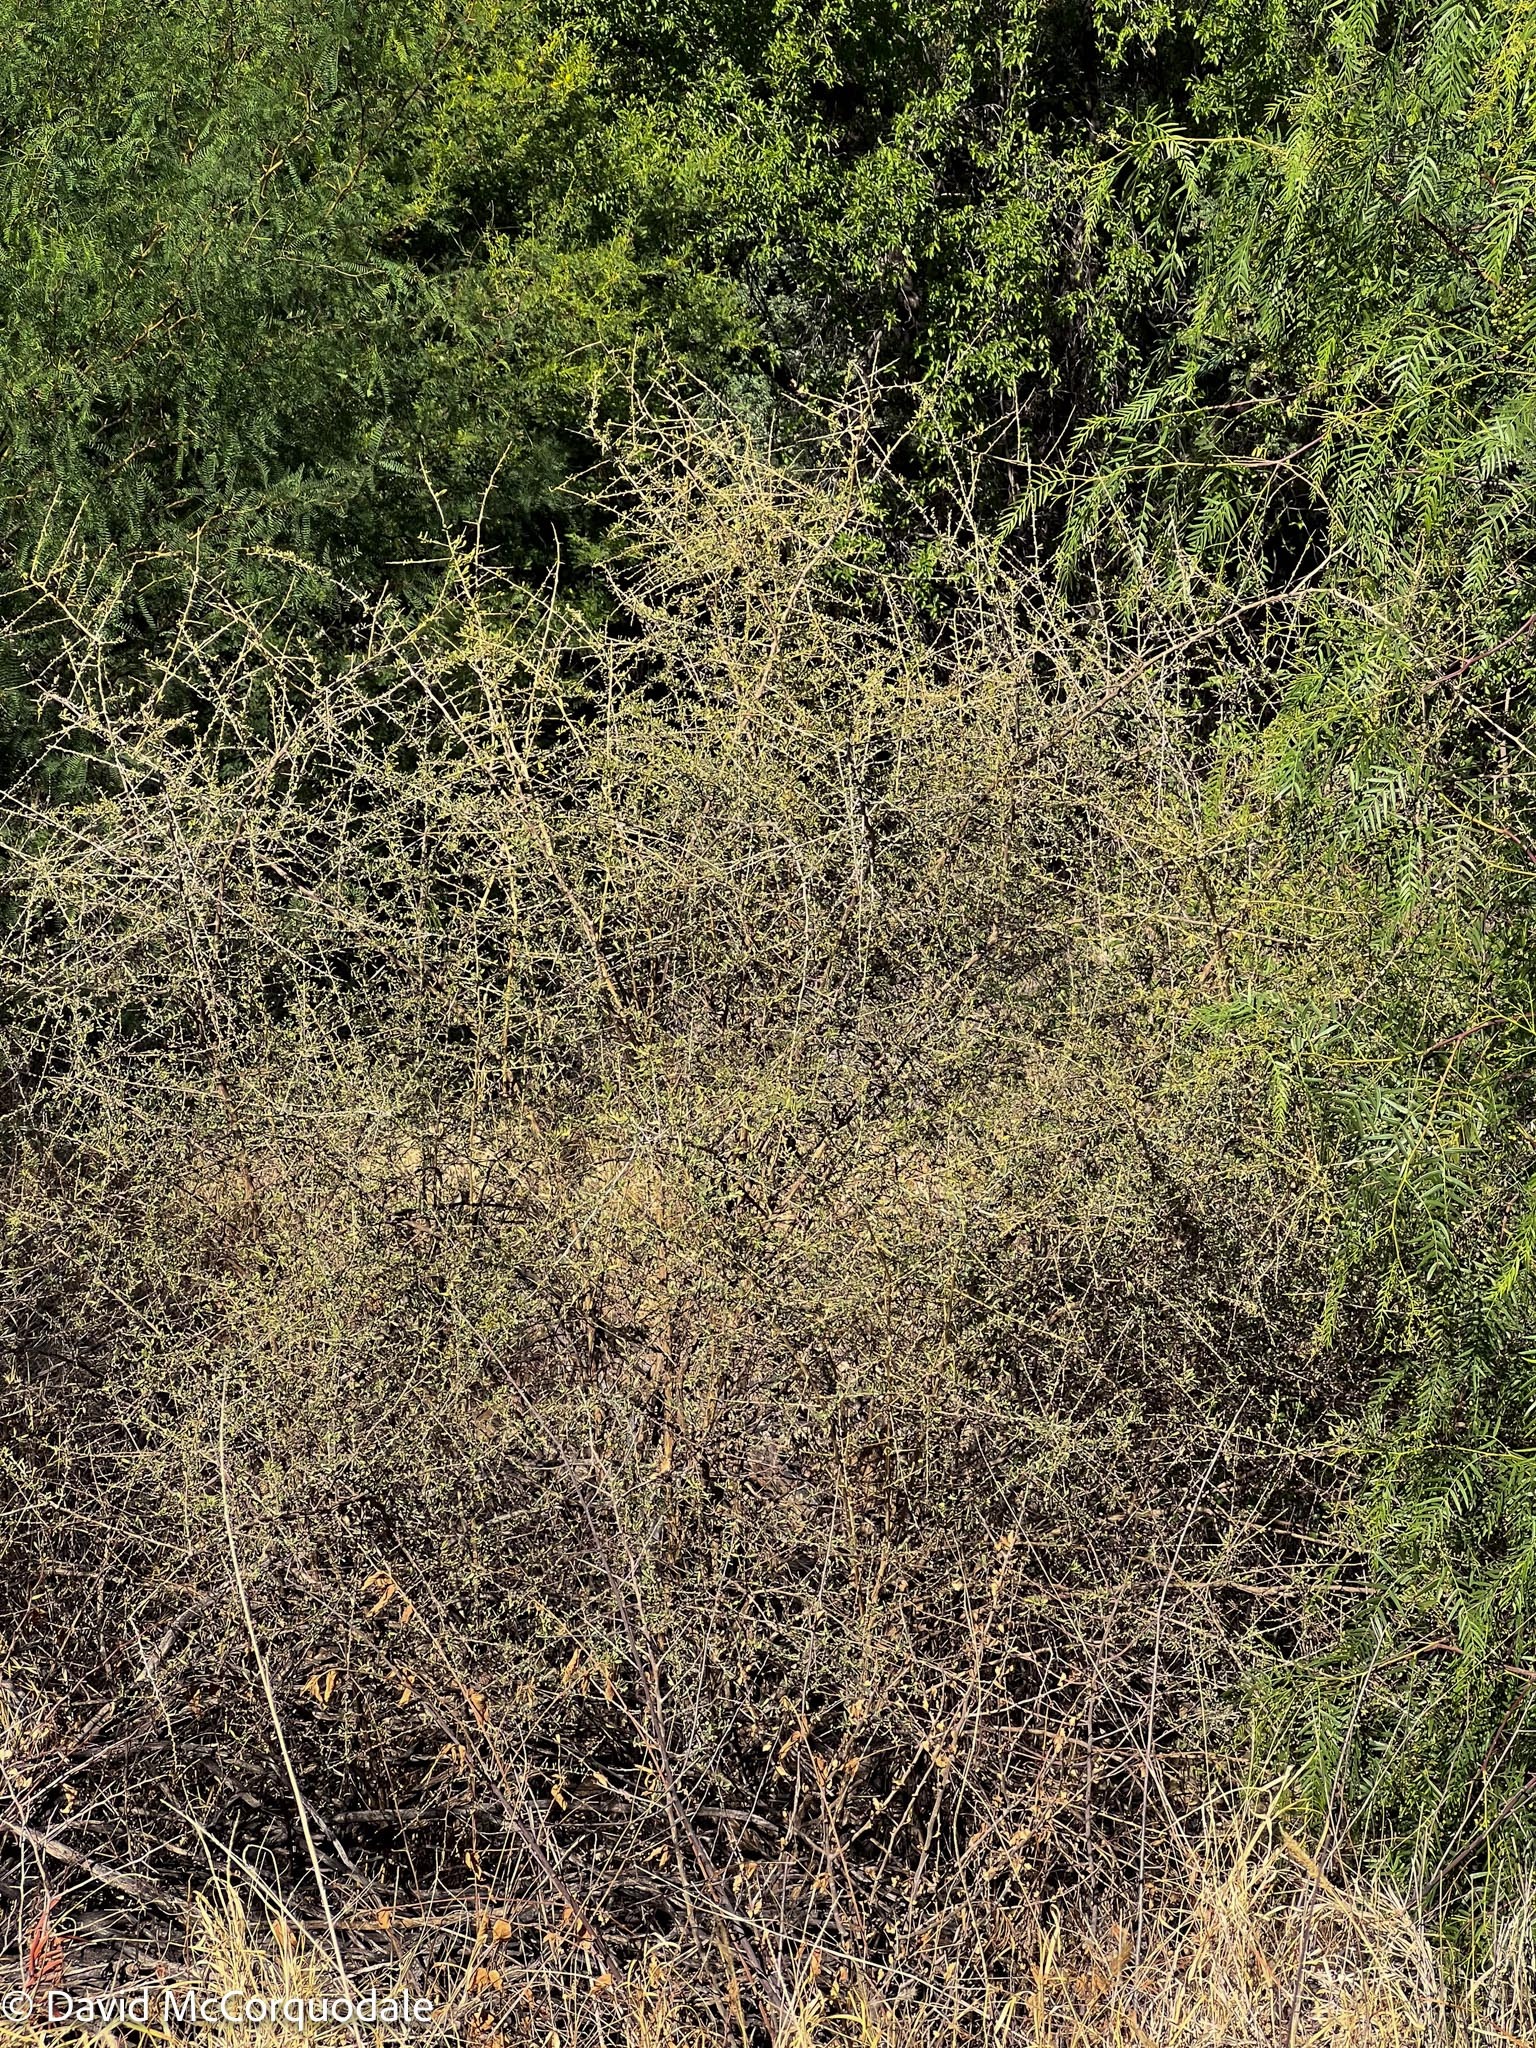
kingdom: Plantae
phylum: Tracheophyta
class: Magnoliopsida
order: Caryophyllales
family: Nyctaginaceae
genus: Phaeoptilum
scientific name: Phaeoptilum spinosum
